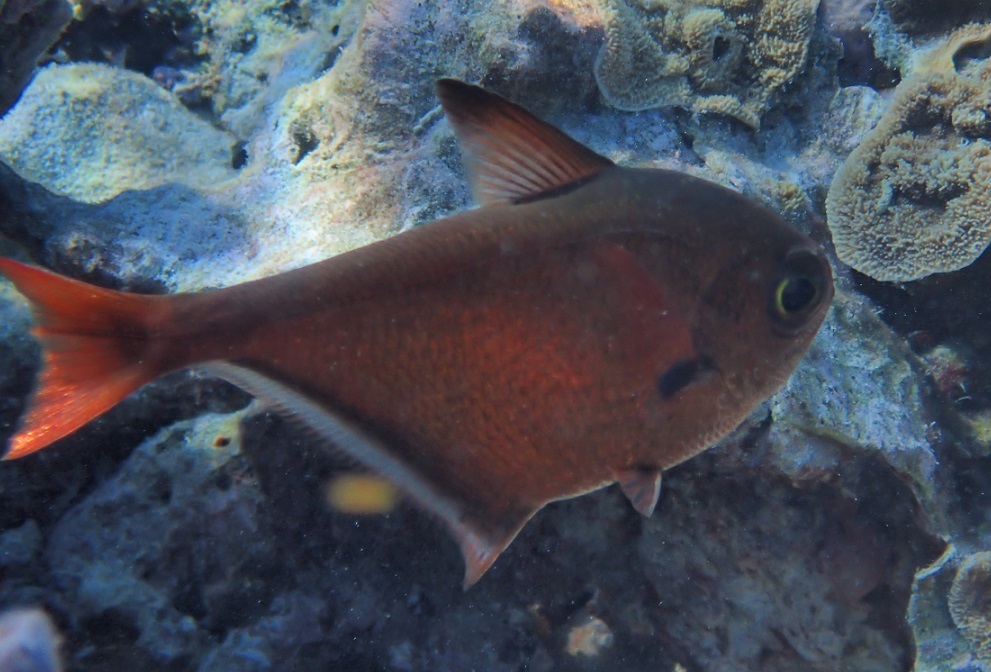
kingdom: Animalia
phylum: Chordata
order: Perciformes
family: Pempheridae
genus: Pempheris
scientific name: Pempheris oualensis
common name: Bronze sweeper
